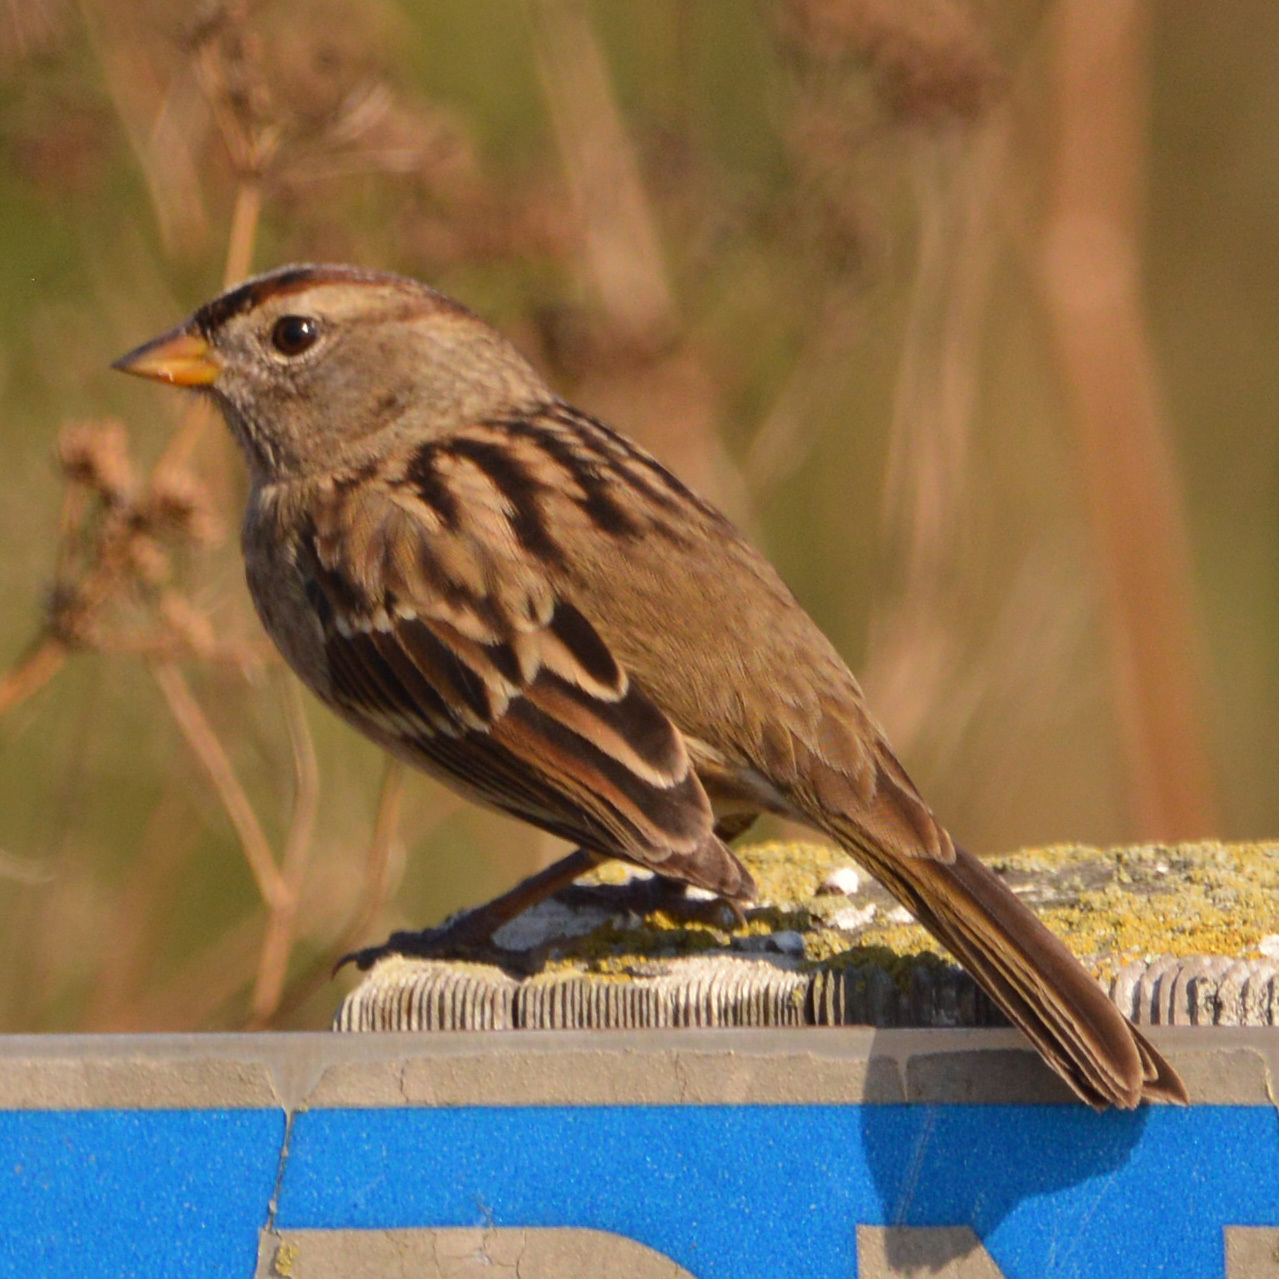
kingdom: Animalia
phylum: Chordata
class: Aves
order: Passeriformes
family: Passerellidae
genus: Zonotrichia
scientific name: Zonotrichia leucophrys
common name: White-crowned sparrow
